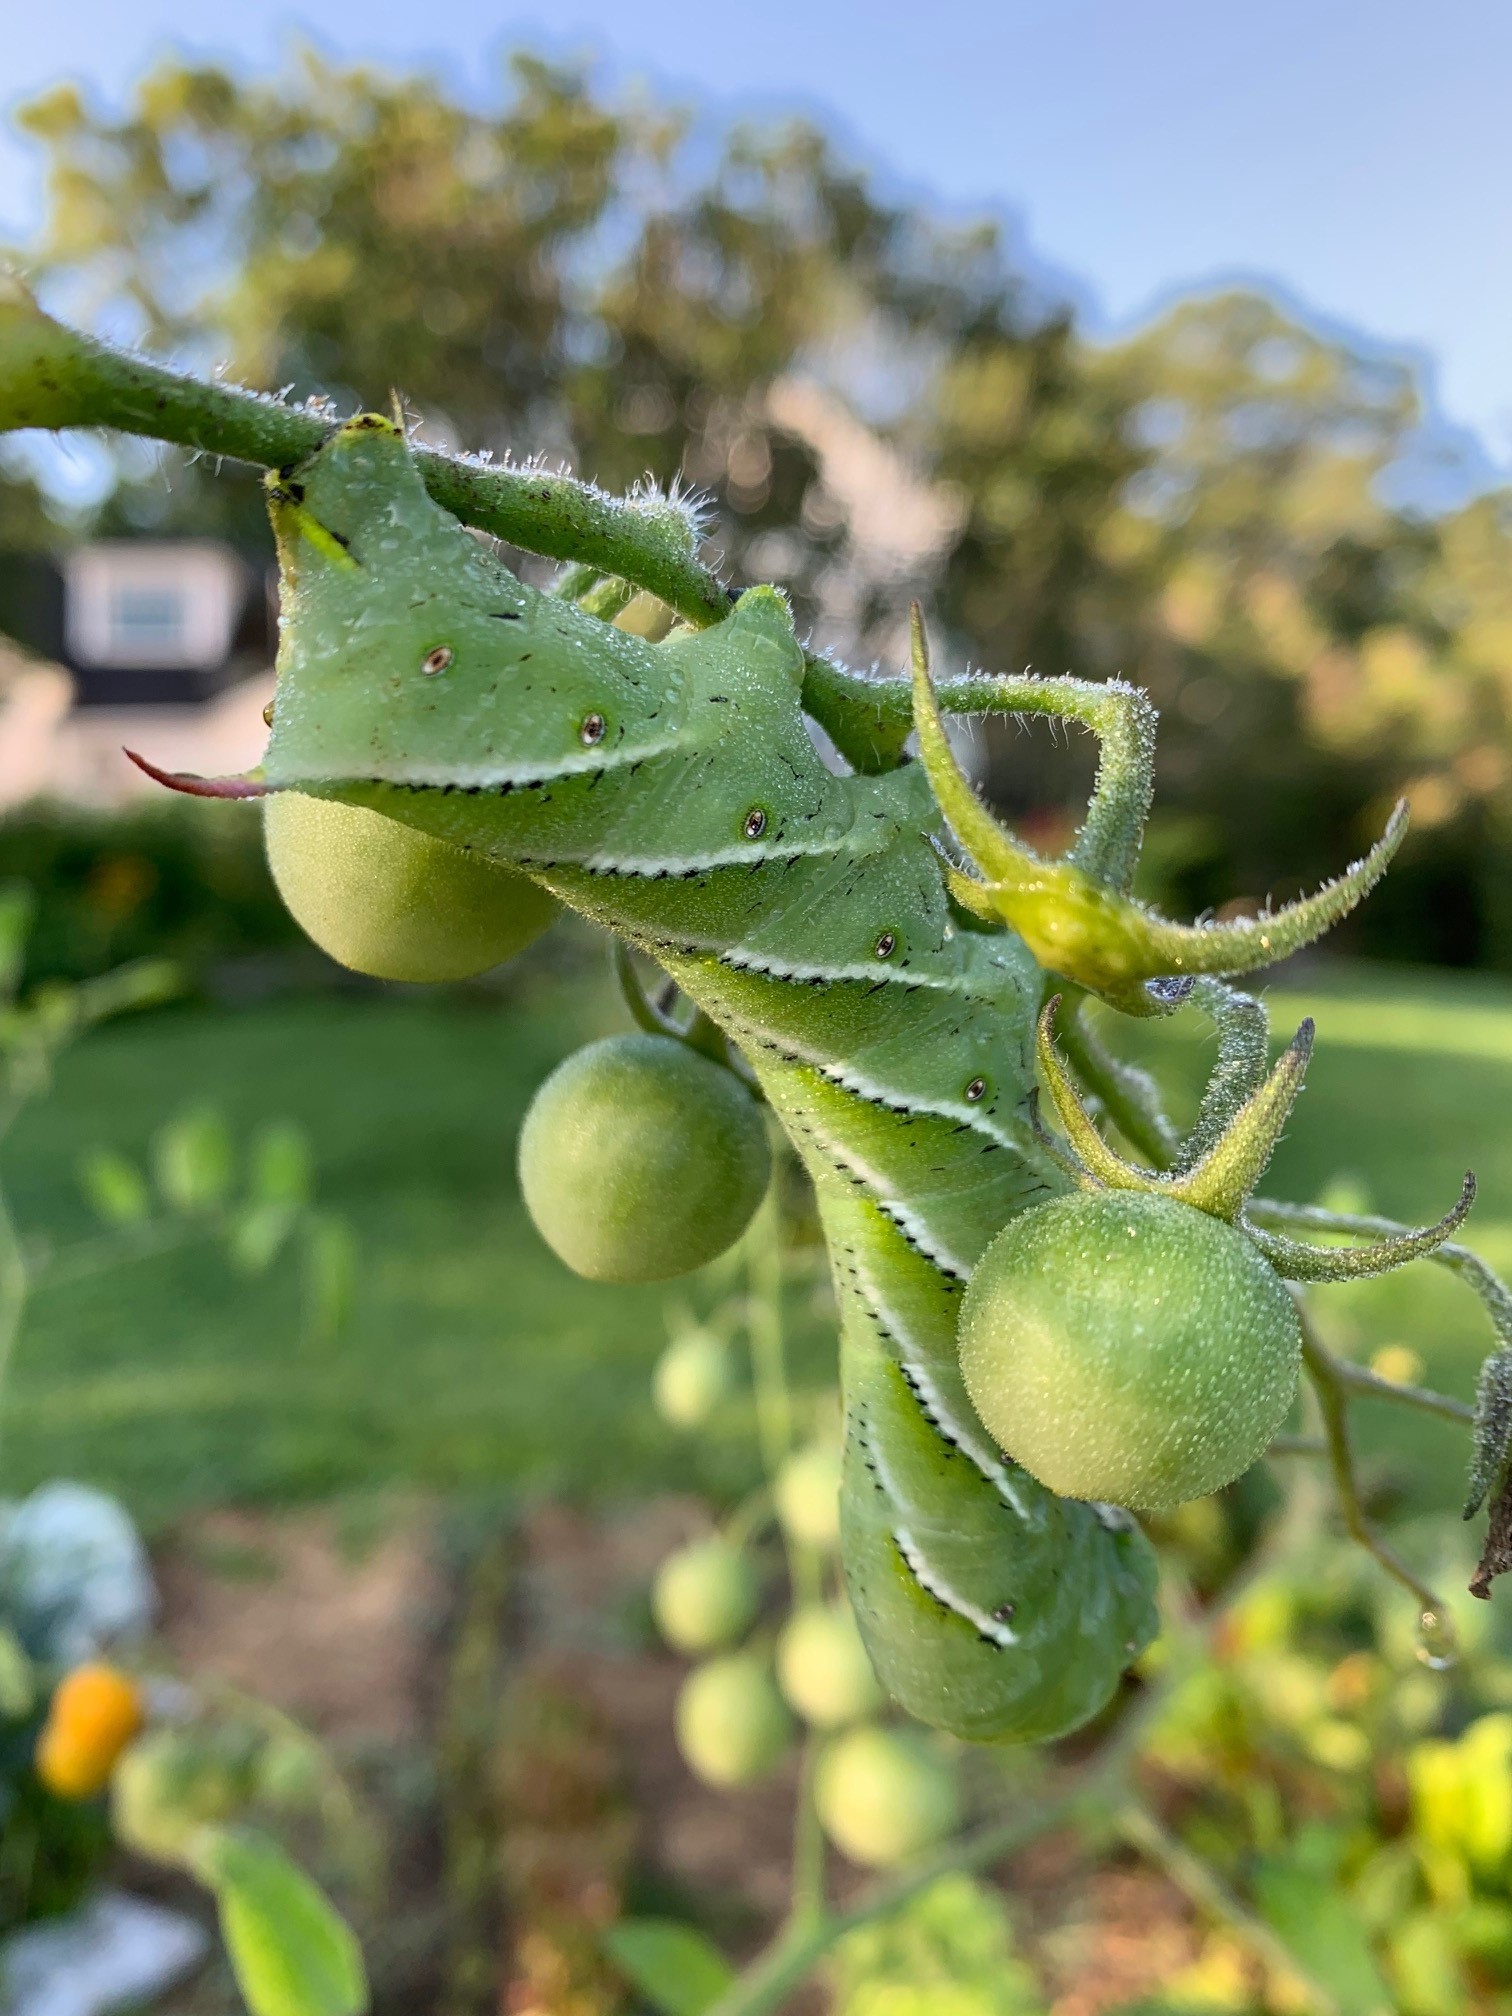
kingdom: Animalia
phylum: Arthropoda
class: Insecta
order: Lepidoptera
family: Sphingidae
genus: Manduca
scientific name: Manduca sexta
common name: Carolina sphinx
